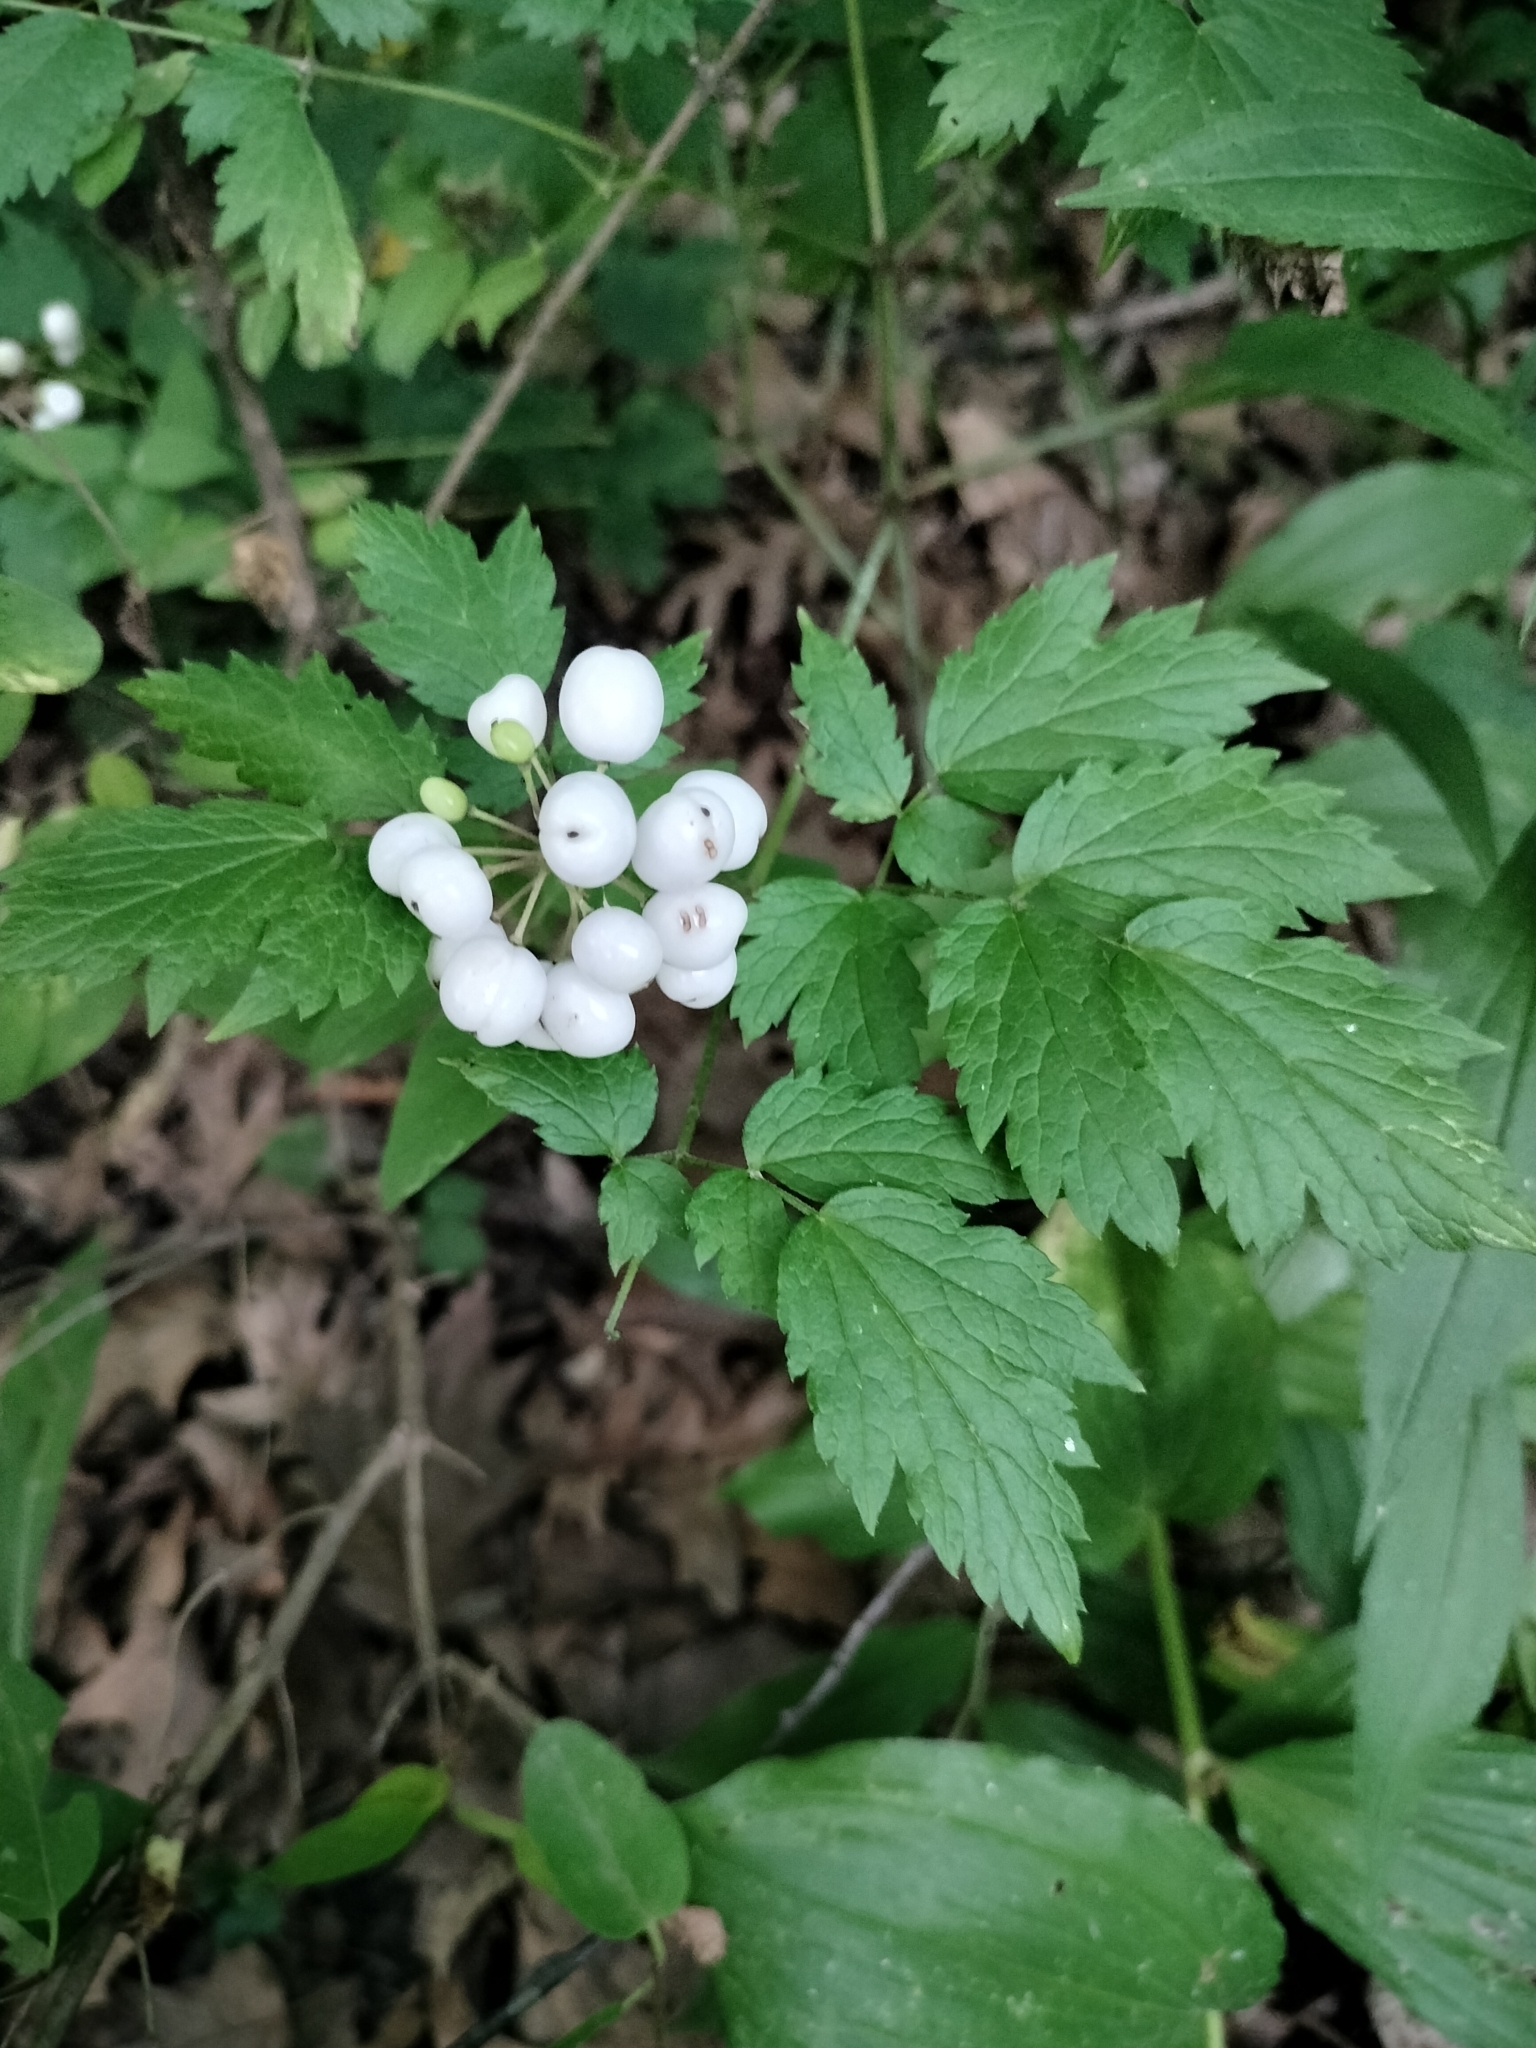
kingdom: Plantae
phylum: Tracheophyta
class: Magnoliopsida
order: Ranunculales
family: Ranunculaceae
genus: Actaea
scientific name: Actaea rubra
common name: Red baneberry
